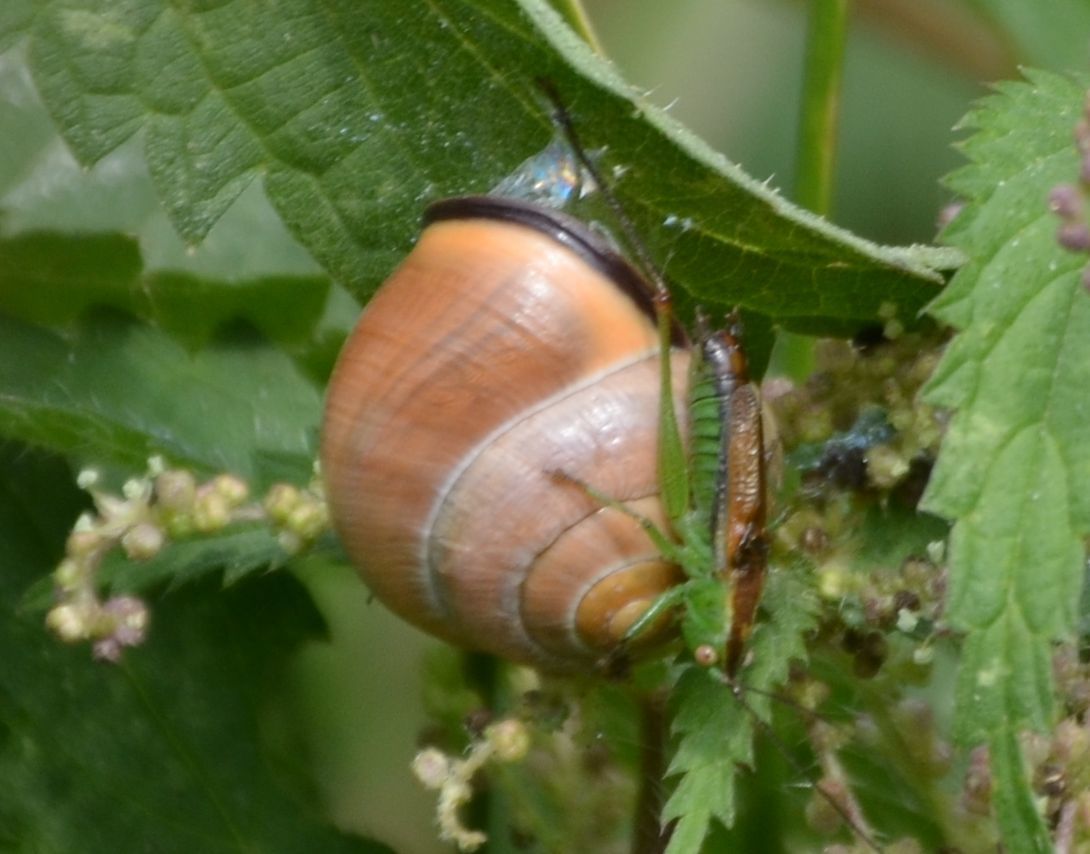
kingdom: Animalia
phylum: Mollusca
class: Gastropoda
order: Stylommatophora
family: Helicidae
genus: Cepaea
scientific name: Cepaea nemoralis
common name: Grovesnail
